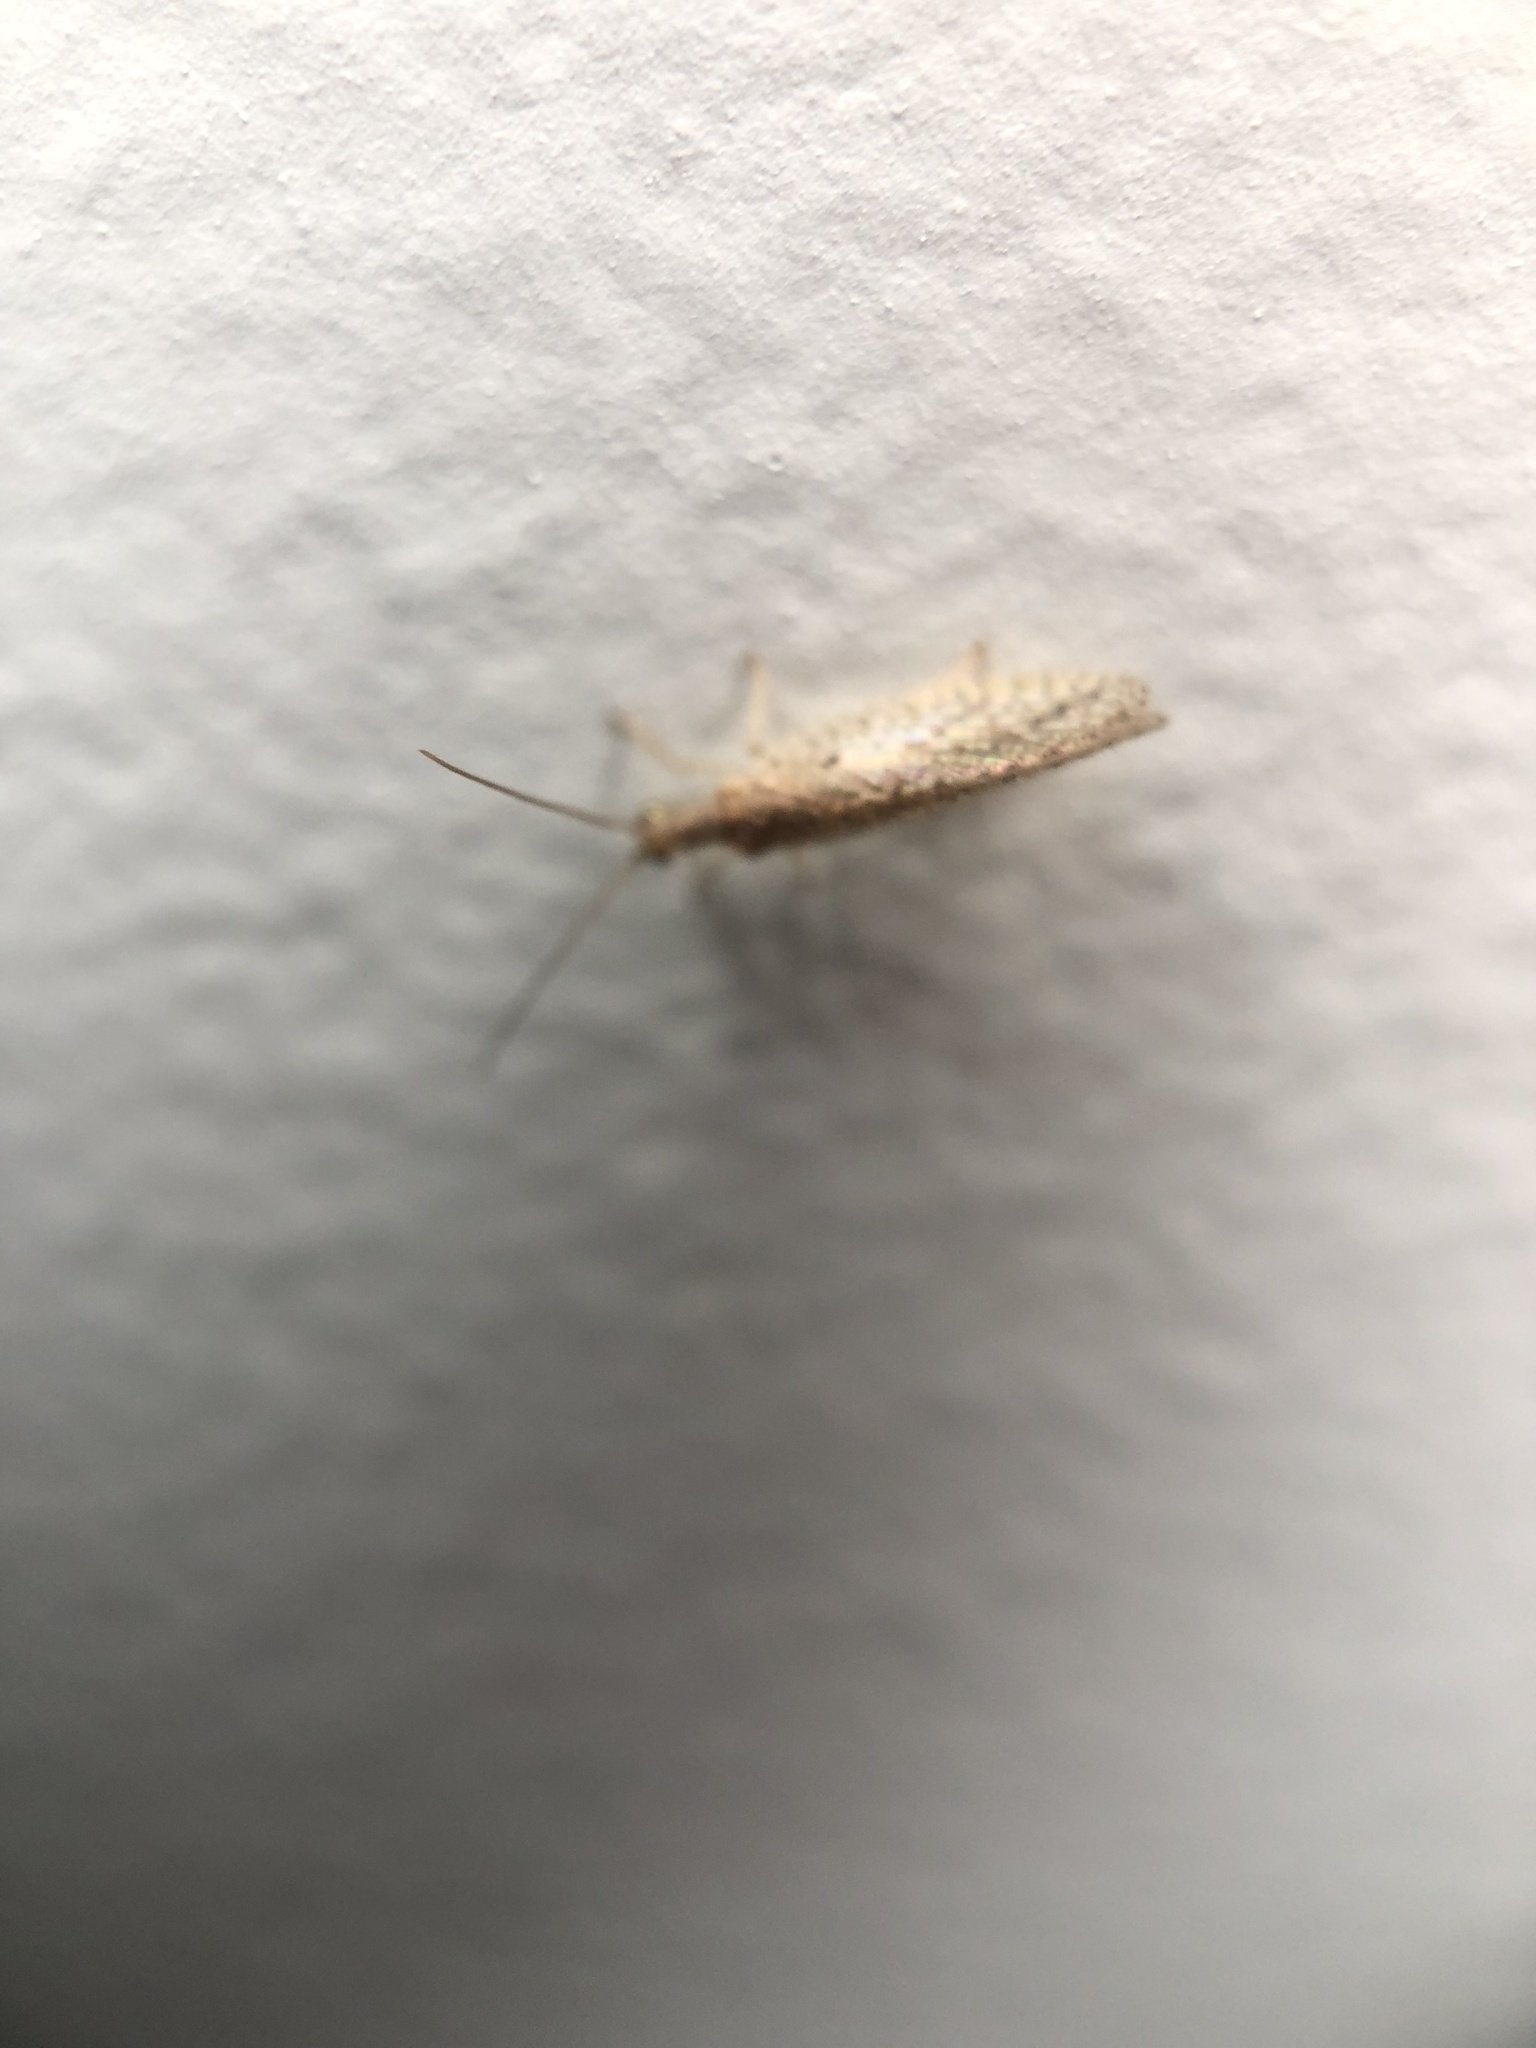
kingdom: Animalia
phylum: Arthropoda
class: Insecta
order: Neuroptera
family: Hemerobiidae
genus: Micromus
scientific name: Micromus tasmaniae
